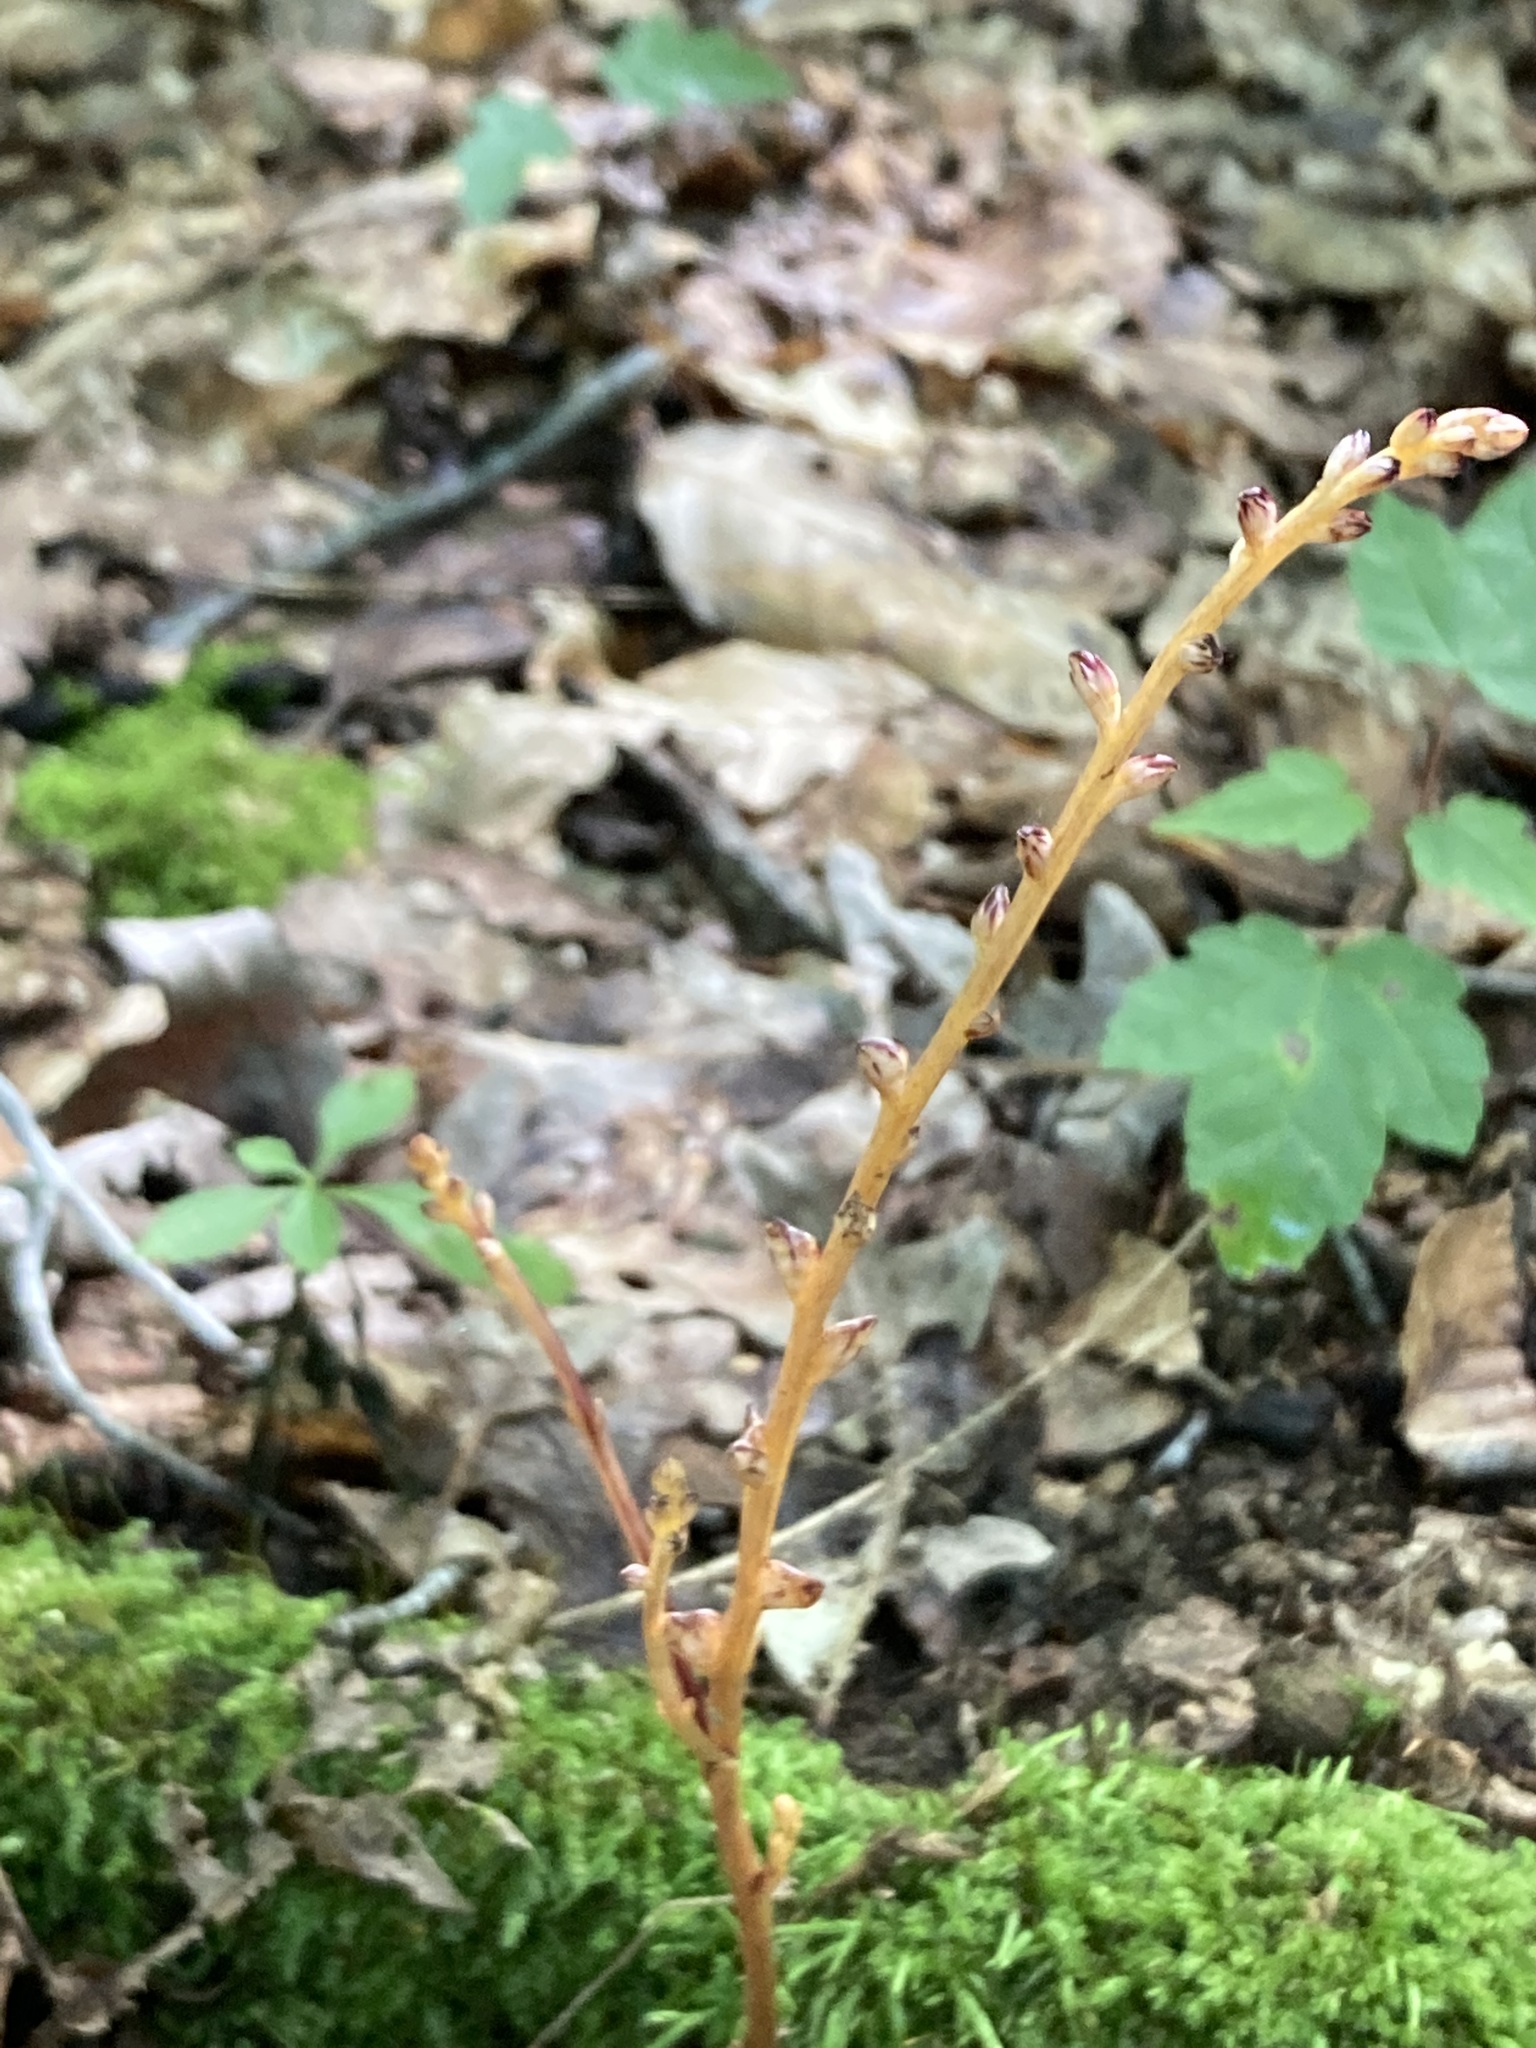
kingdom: Plantae
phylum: Tracheophyta
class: Magnoliopsida
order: Lamiales
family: Orobanchaceae
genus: Epifagus
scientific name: Epifagus virginiana
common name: Beechdrops
